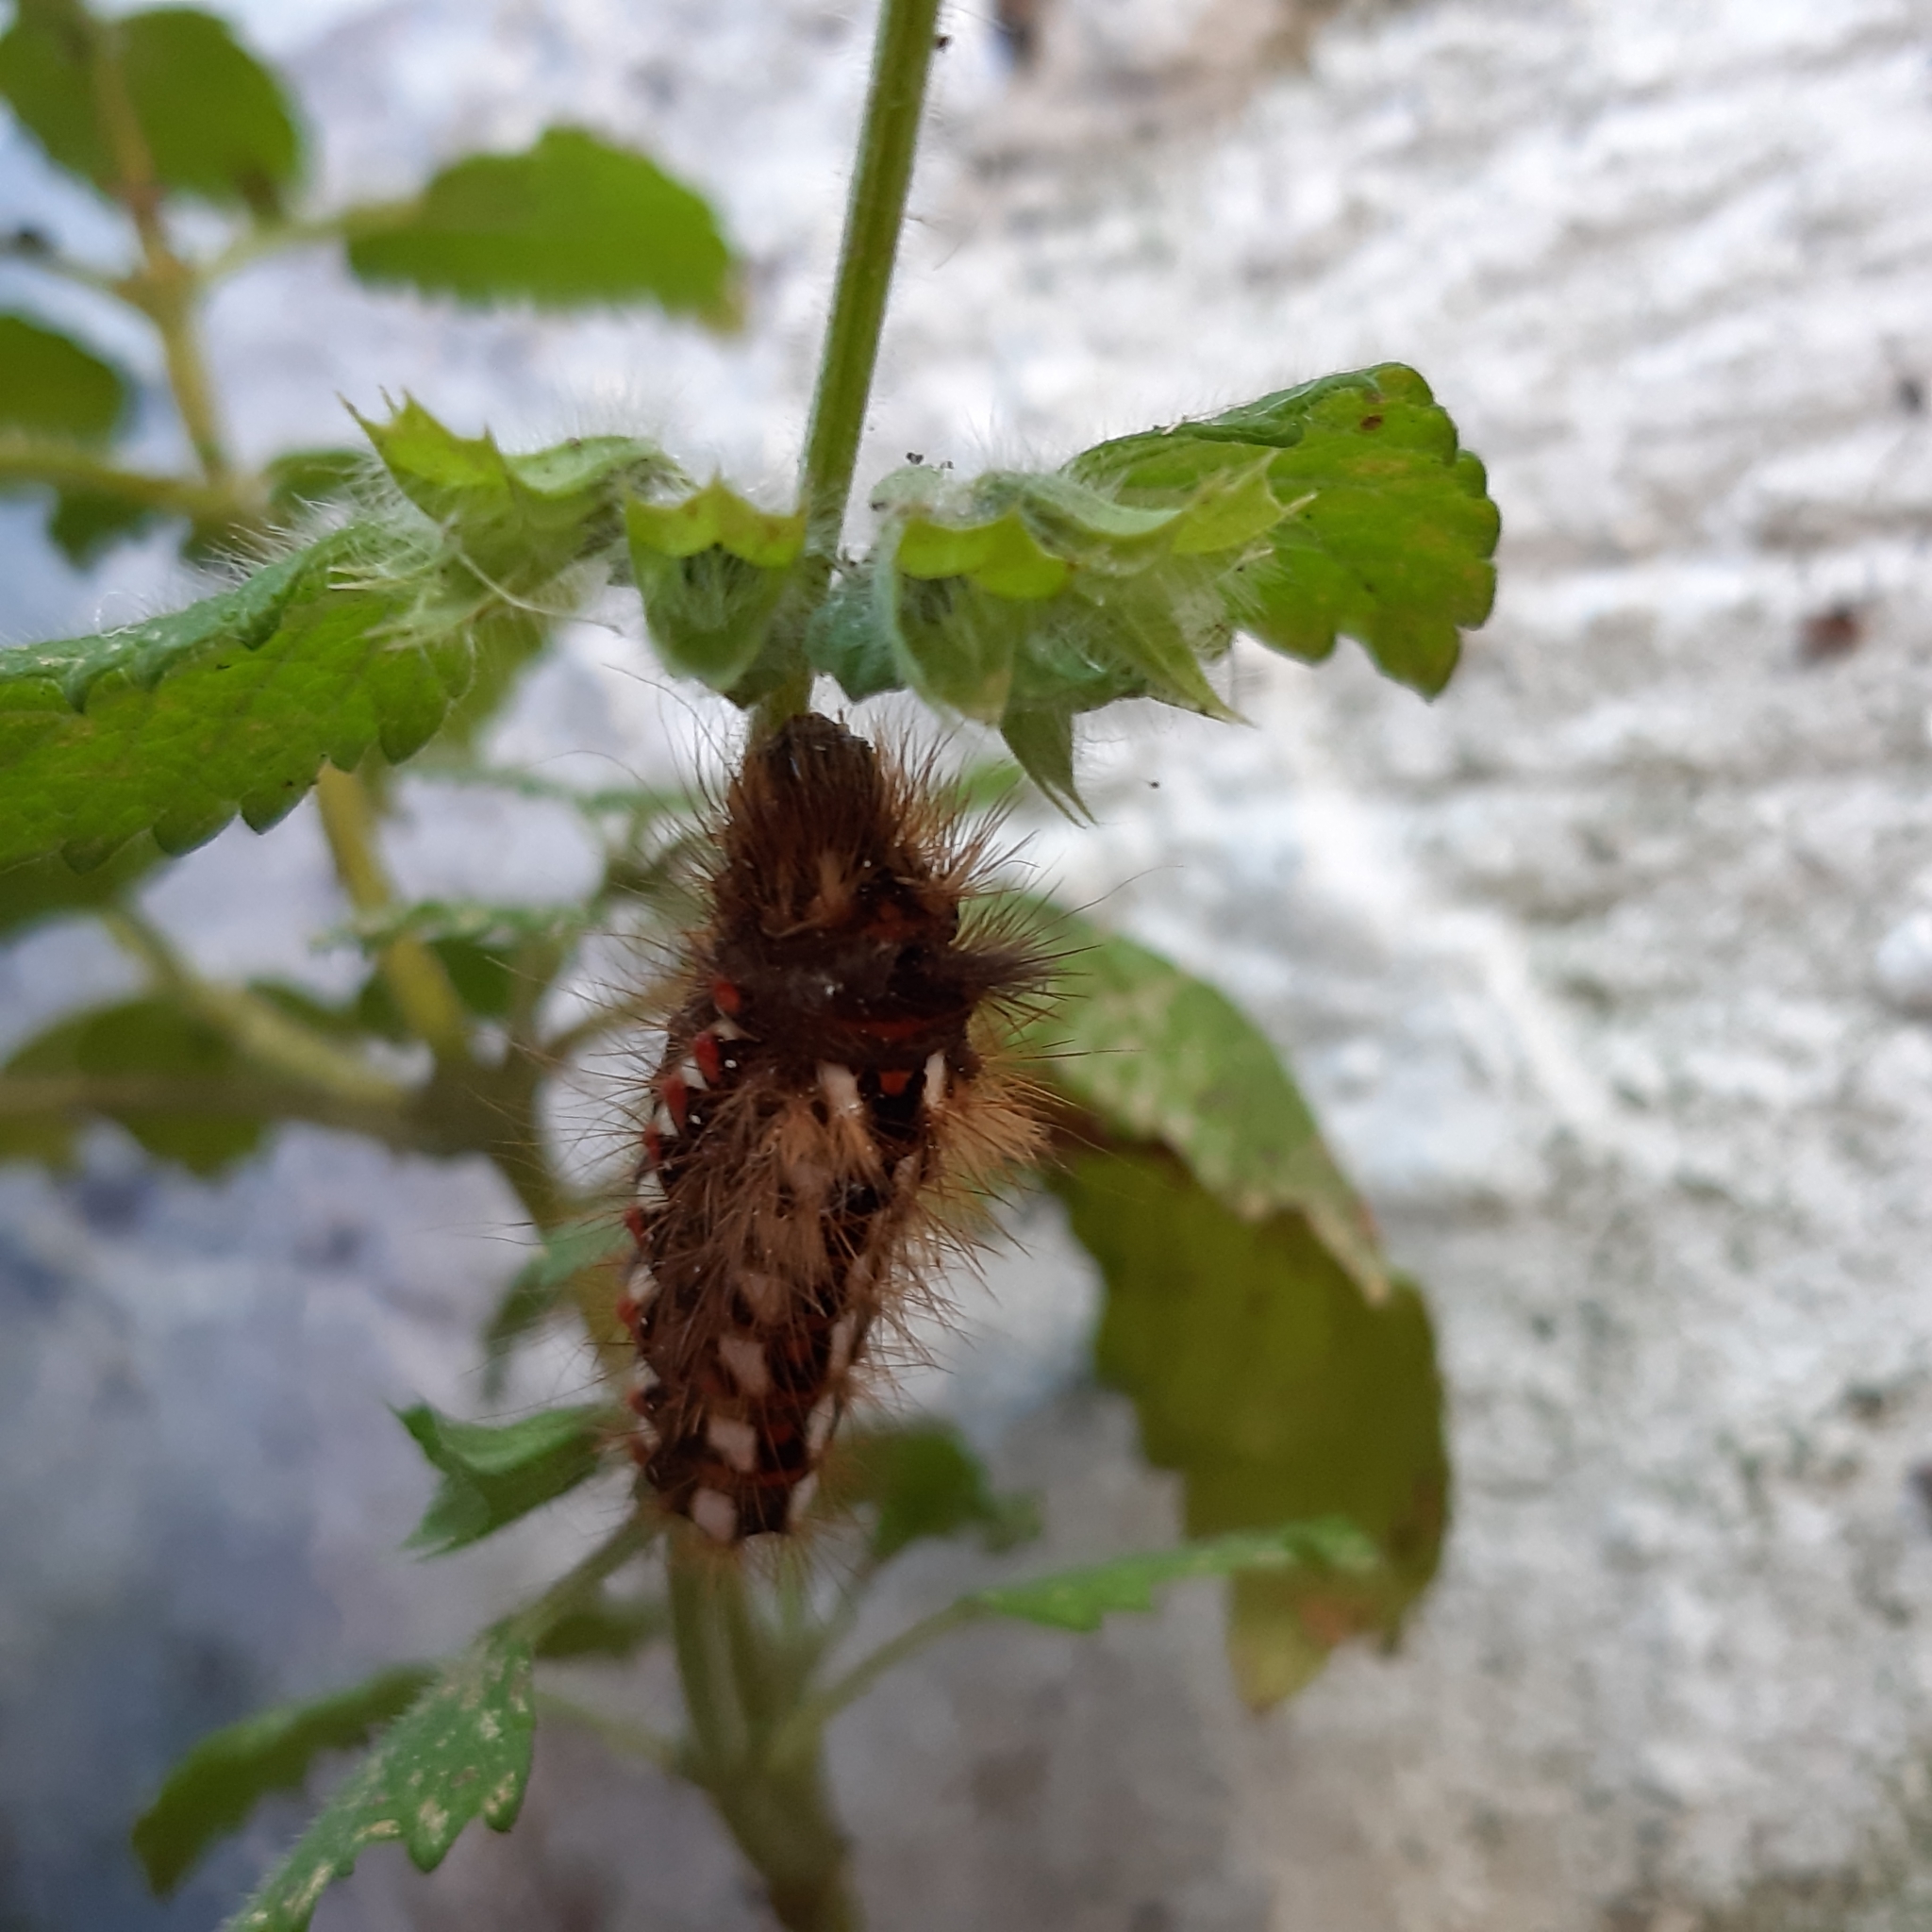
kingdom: Animalia
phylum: Arthropoda
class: Insecta
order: Lepidoptera
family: Noctuidae
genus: Acronicta
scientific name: Acronicta rumicis
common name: Knot grass
